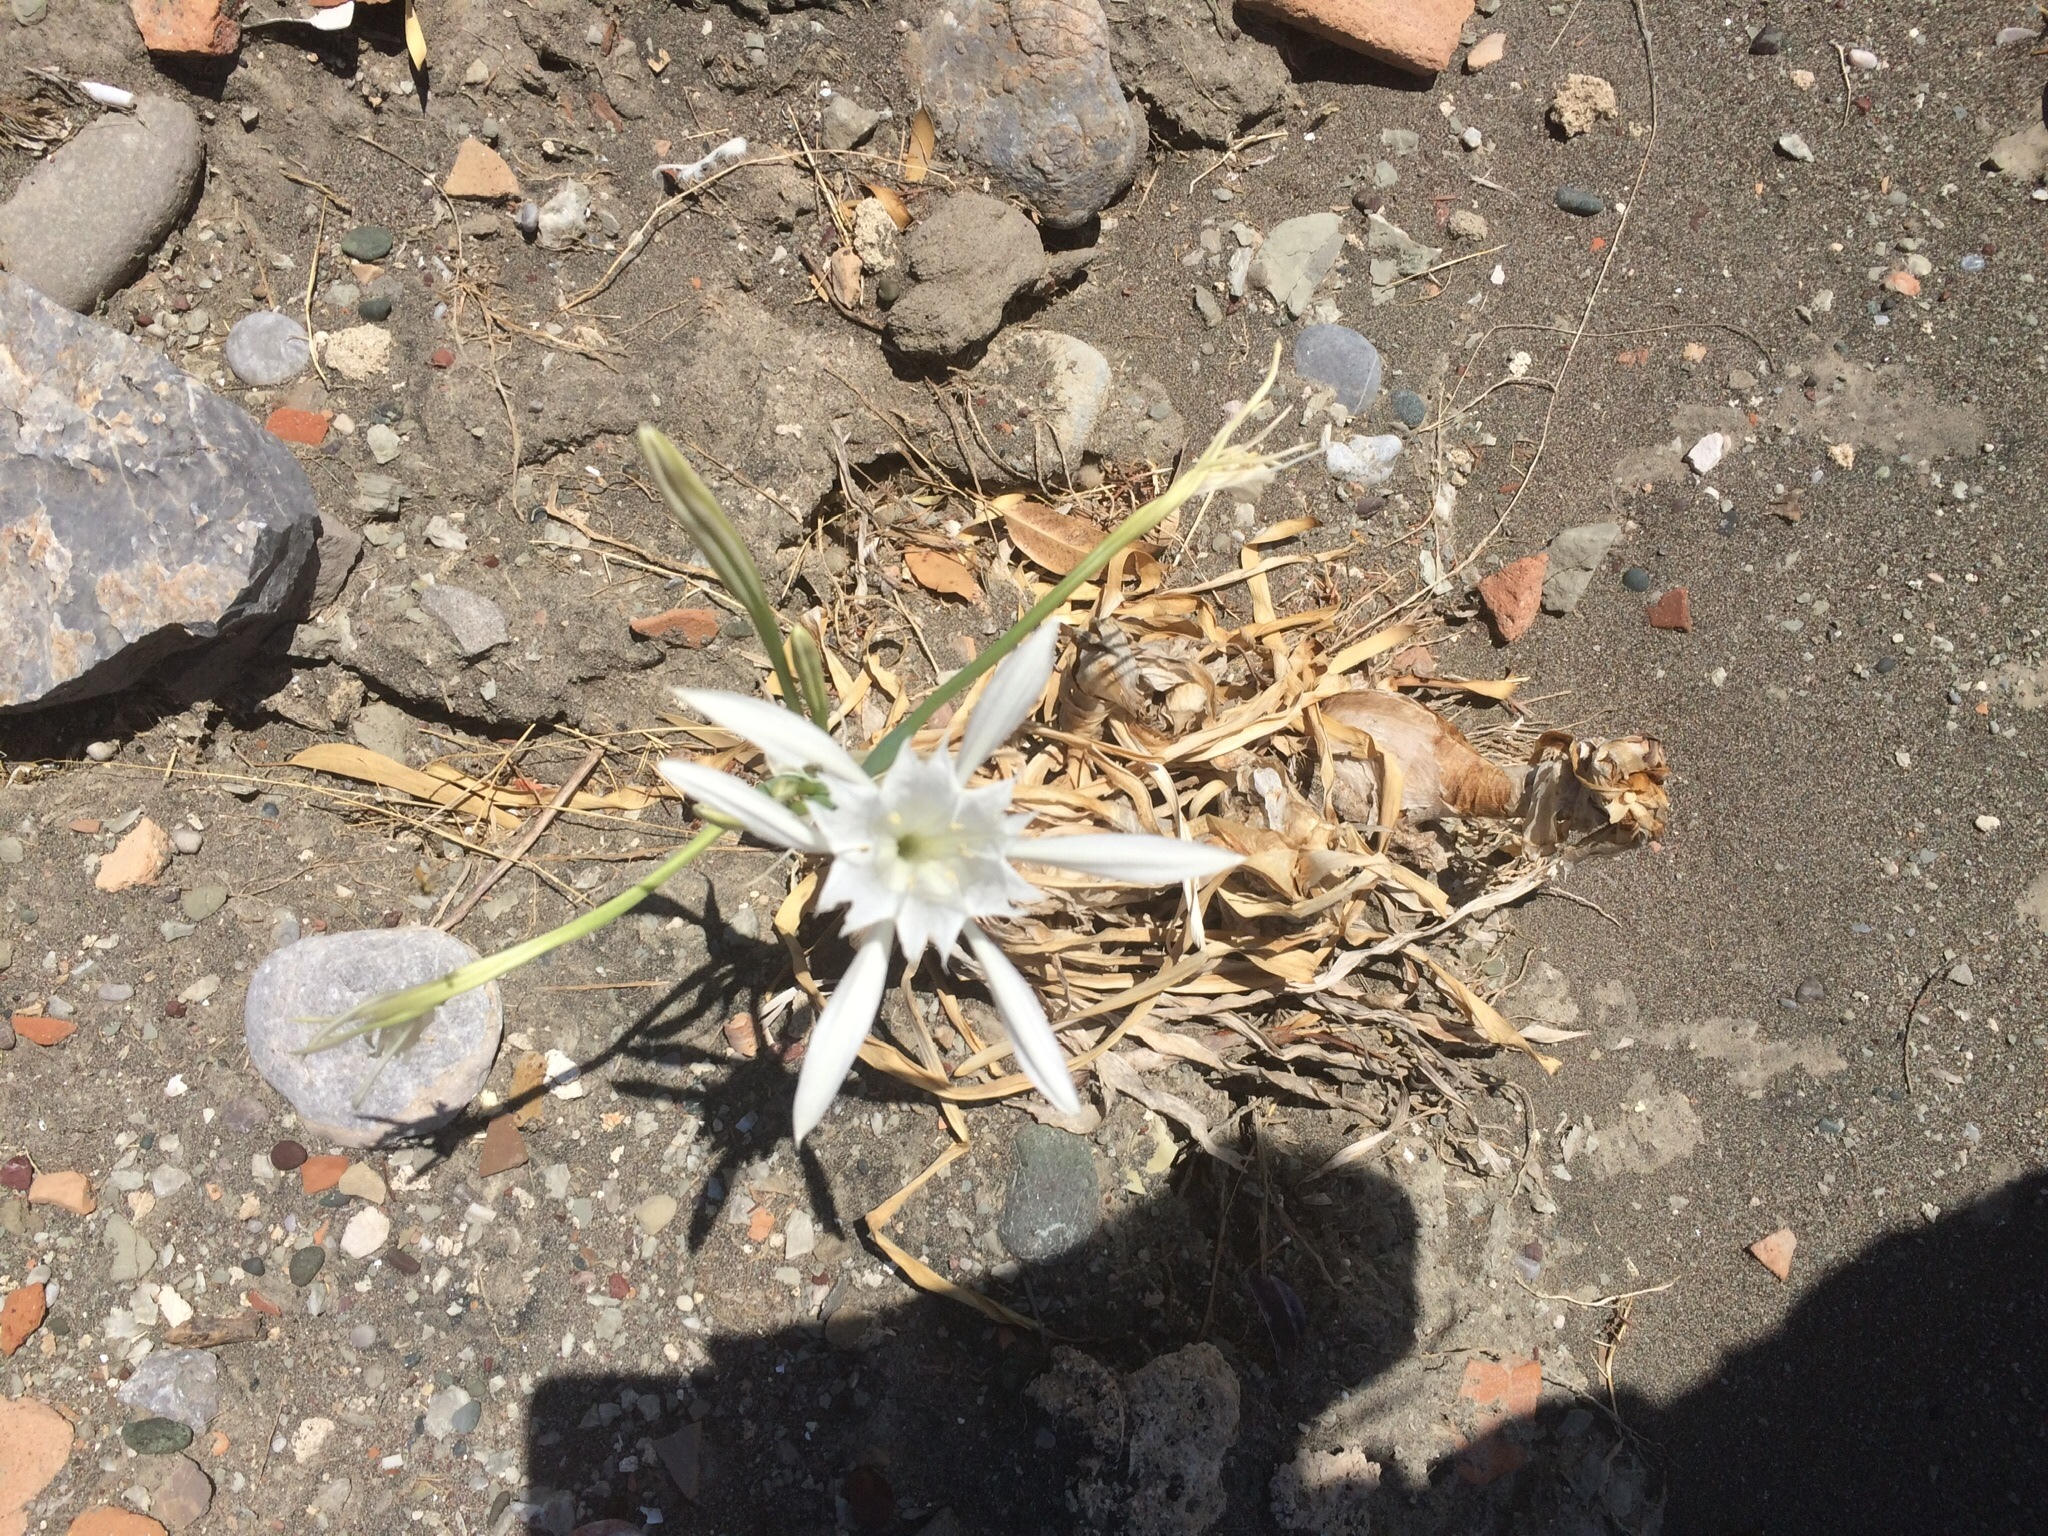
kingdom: Plantae
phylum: Tracheophyta
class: Liliopsida
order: Asparagales
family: Amaryllidaceae
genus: Pancratium
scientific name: Pancratium maritimum
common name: Sea-daffodil
